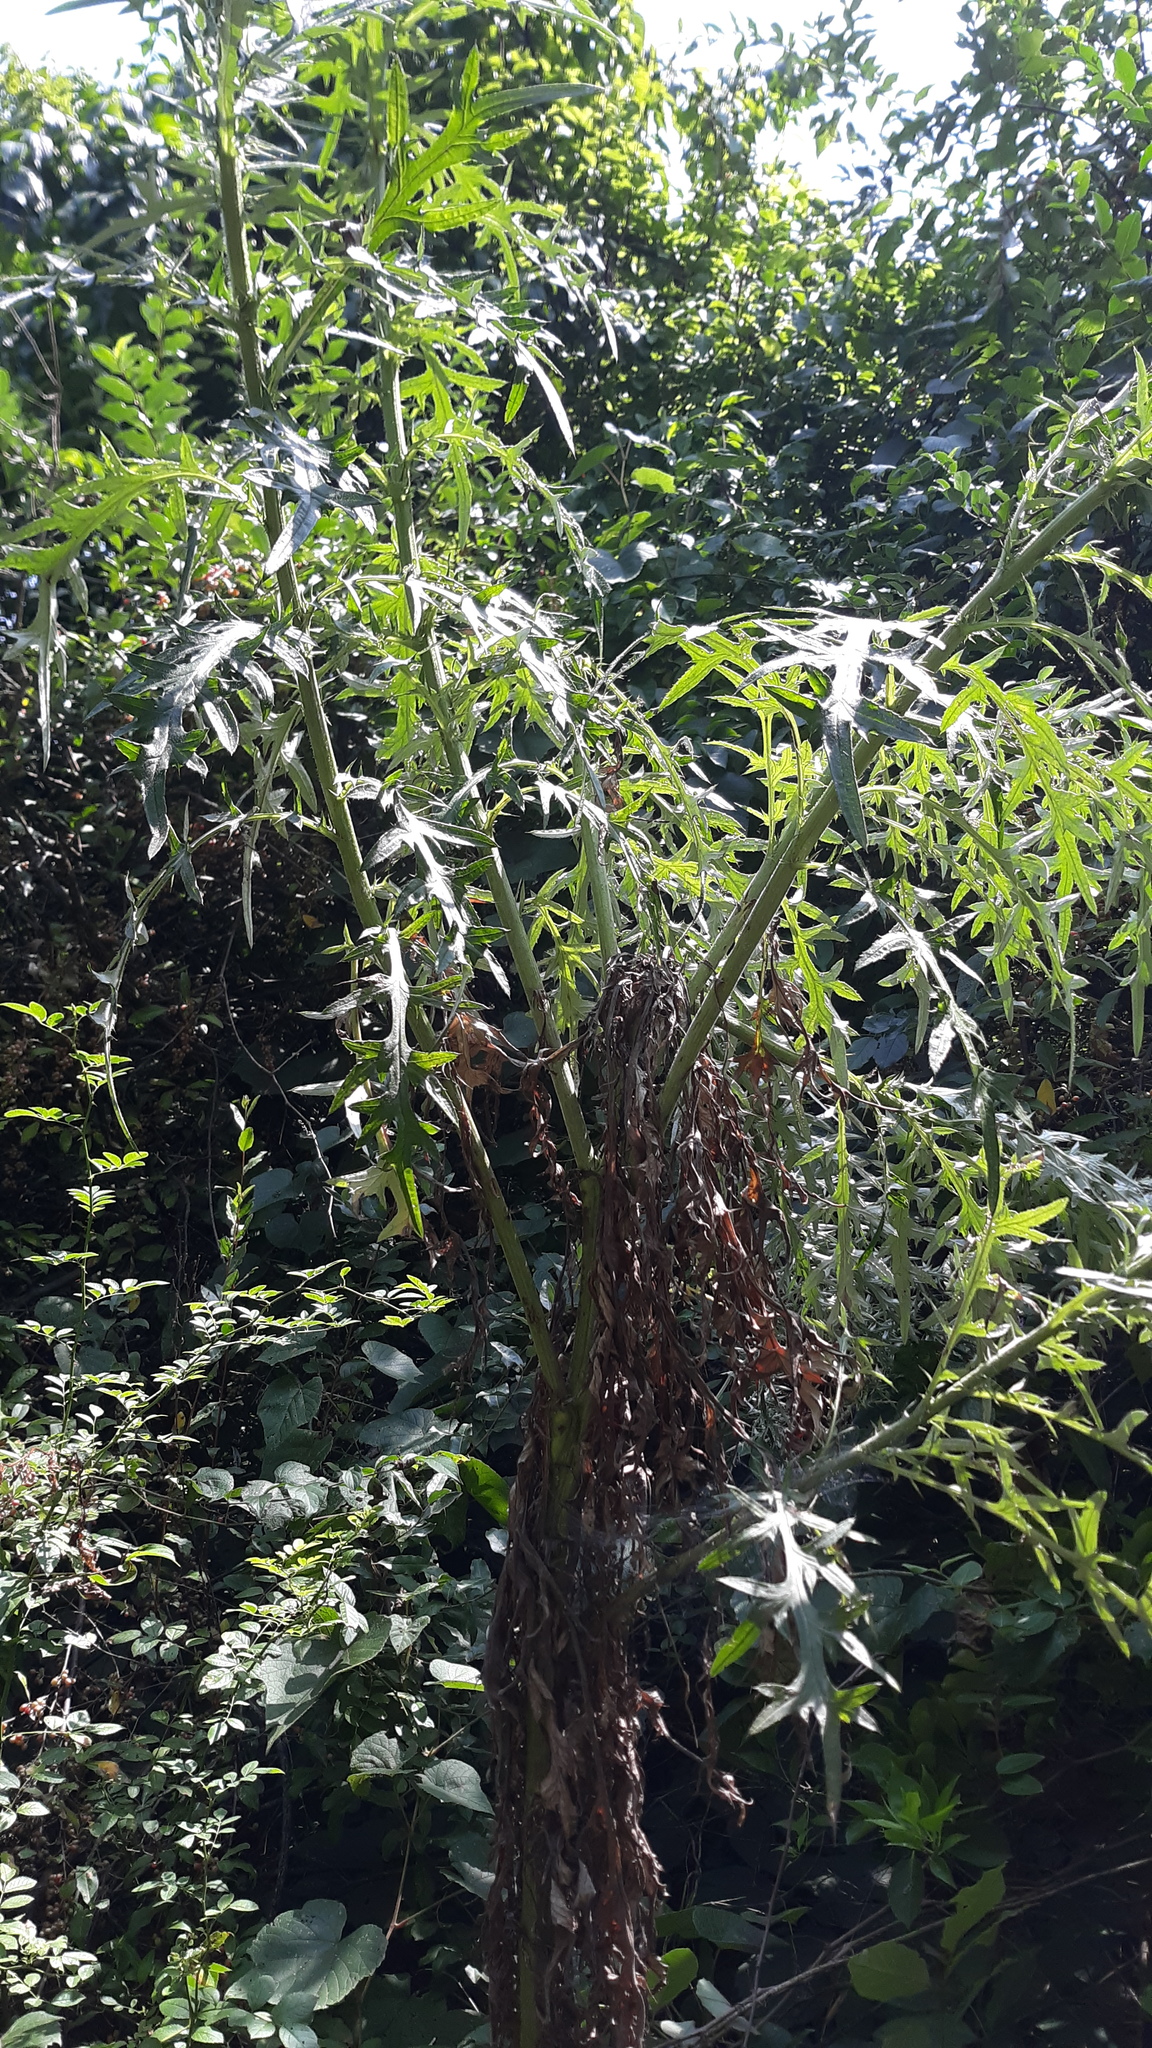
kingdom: Plantae
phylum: Tracheophyta
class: Magnoliopsida
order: Asterales
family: Asteraceae
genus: Cirsium
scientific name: Cirsium discolor
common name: Field thistle
